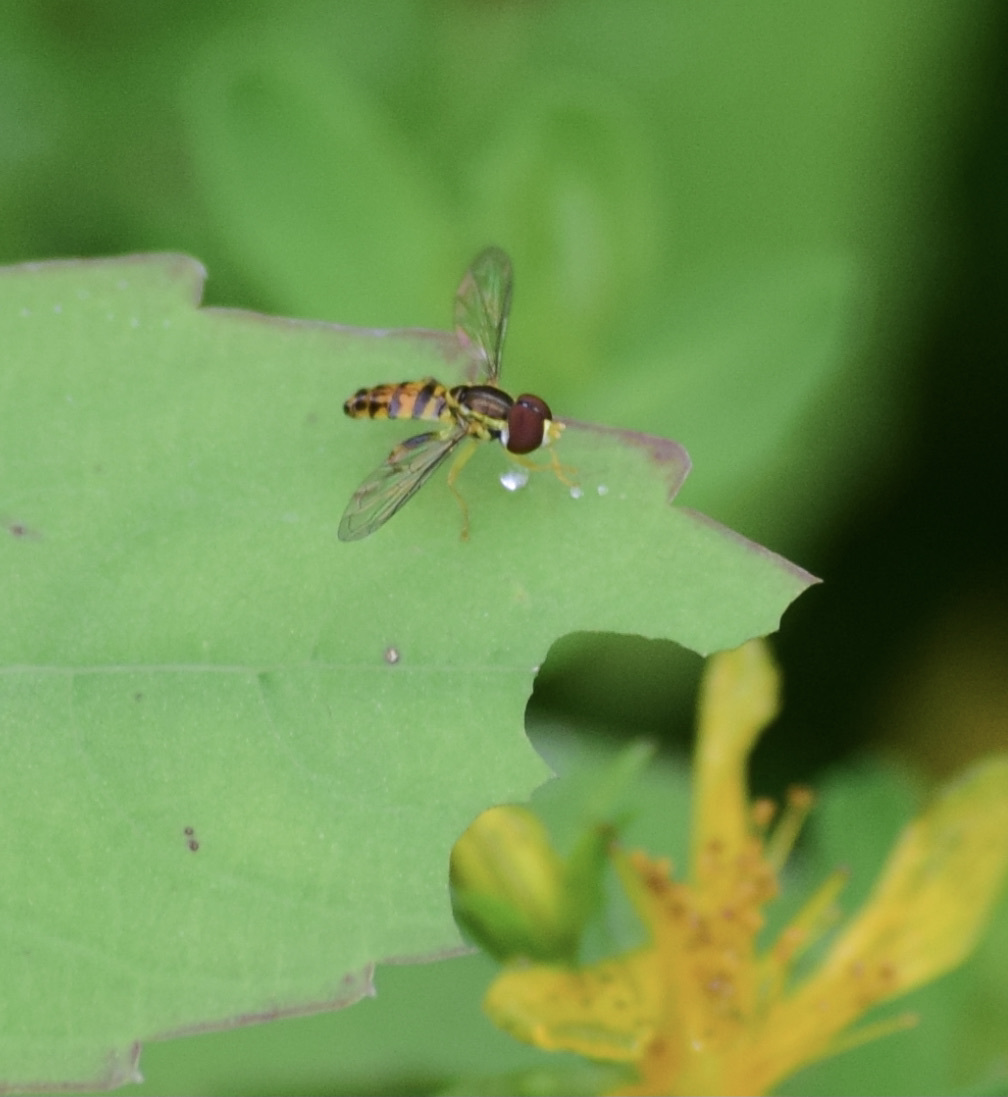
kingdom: Animalia
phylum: Arthropoda
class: Insecta
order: Diptera
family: Syrphidae
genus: Toxomerus
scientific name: Toxomerus geminatus
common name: Eastern calligrapher
